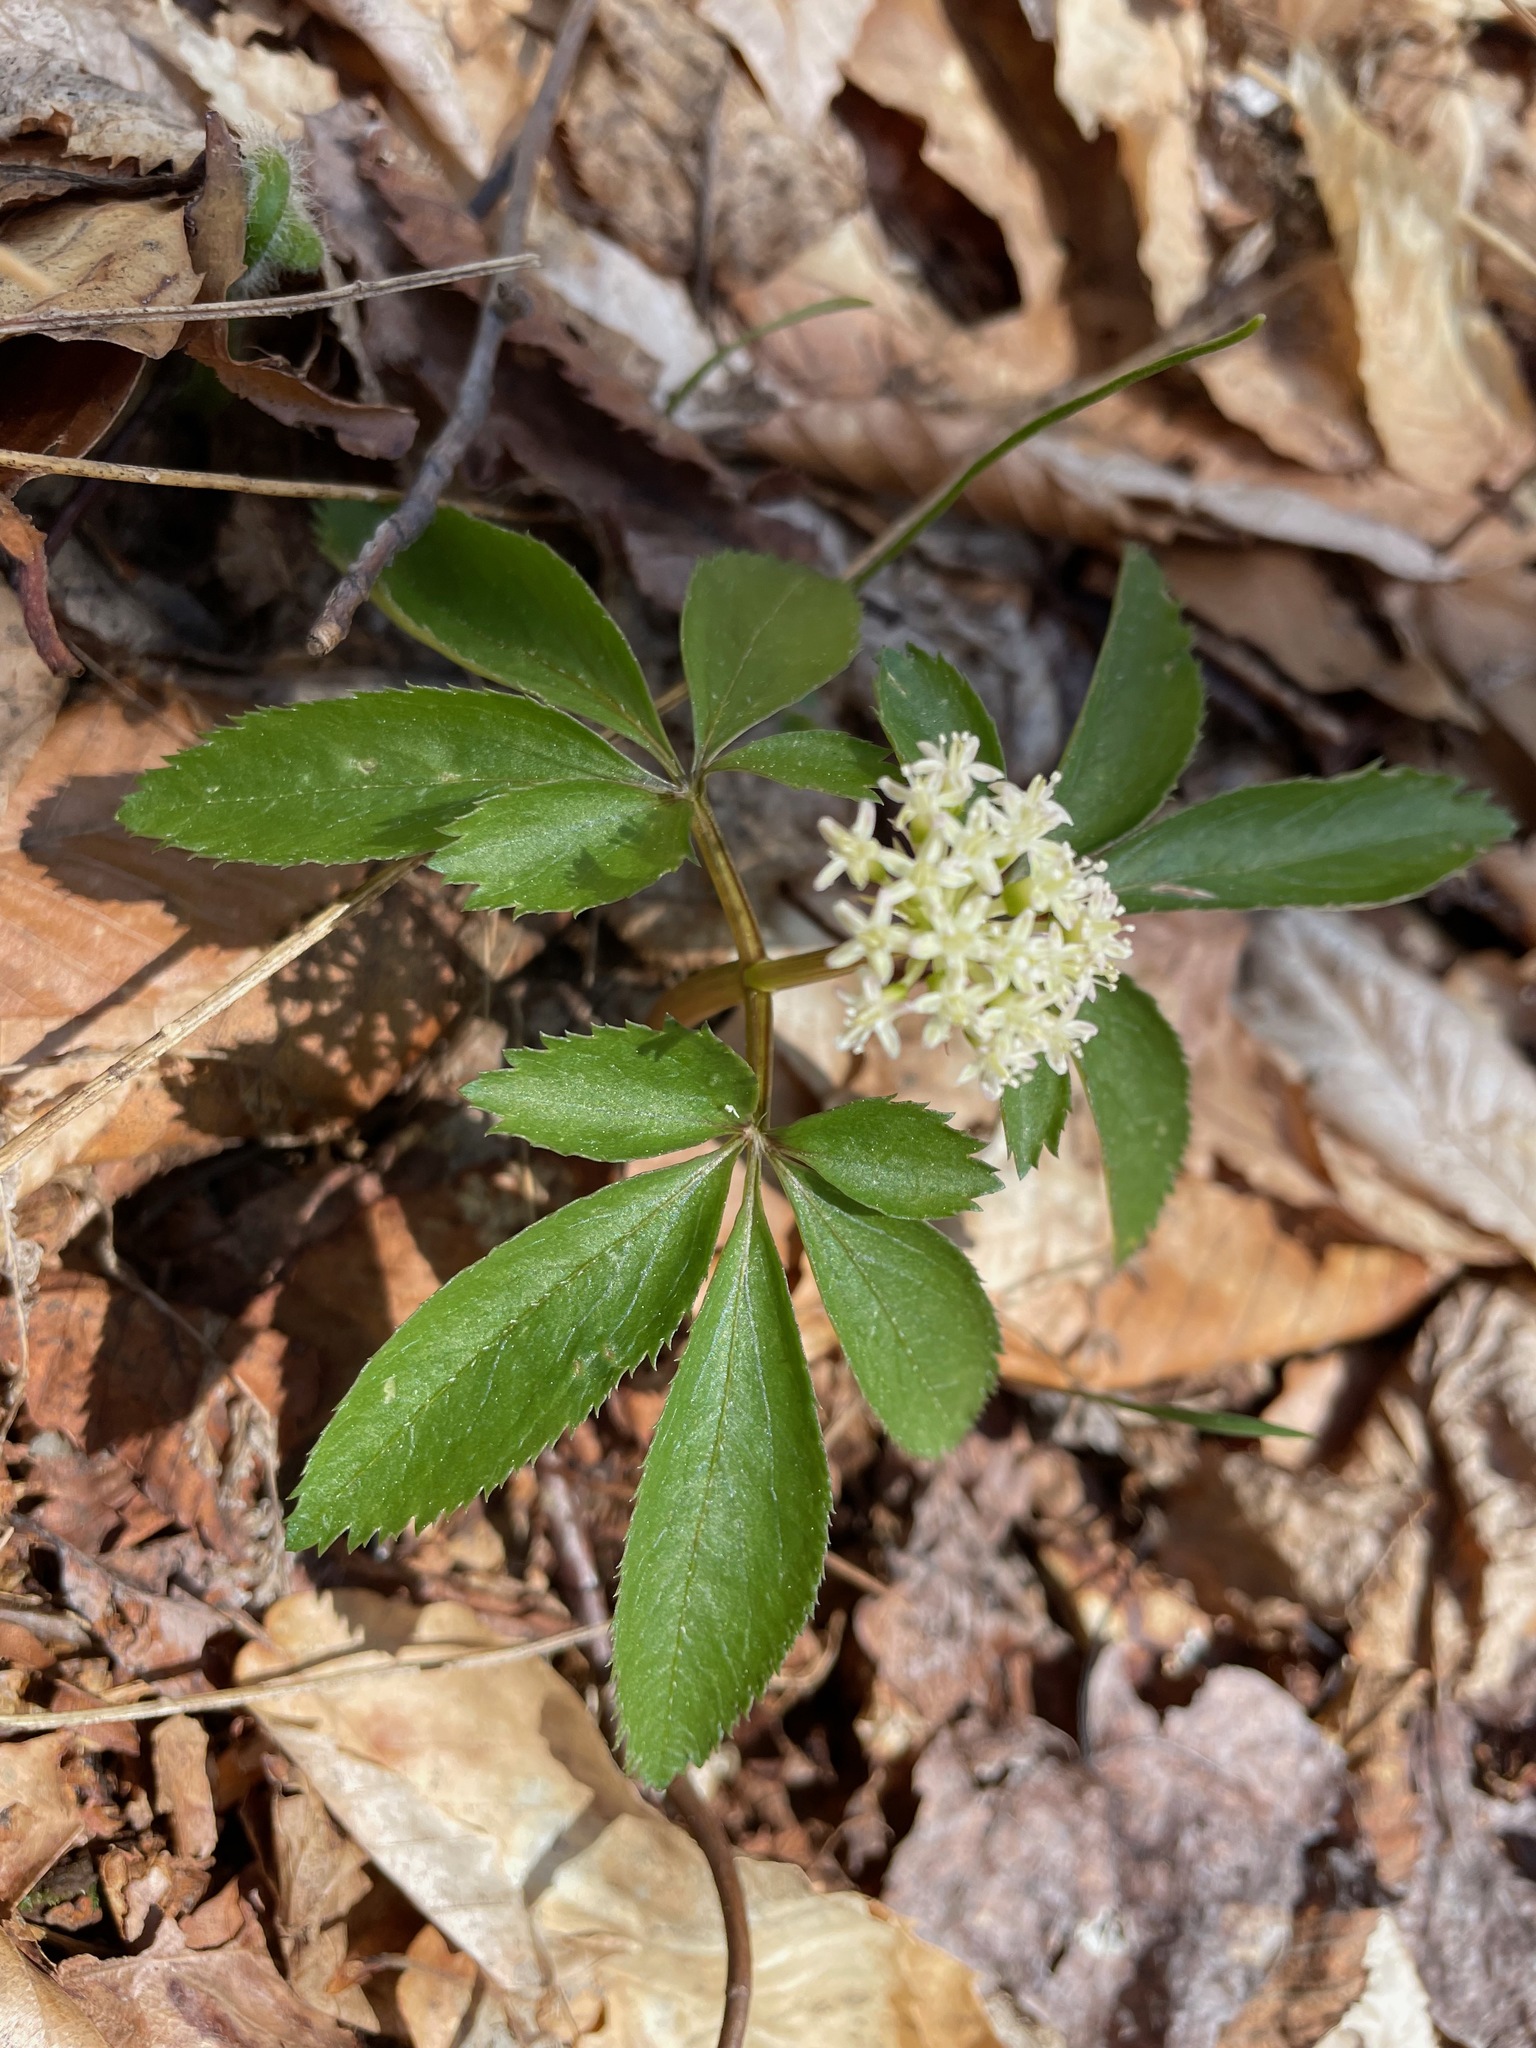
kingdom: Plantae
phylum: Tracheophyta
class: Magnoliopsida
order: Apiales
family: Araliaceae
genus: Panax
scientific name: Panax trifolius
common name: Dwarf ginseng
